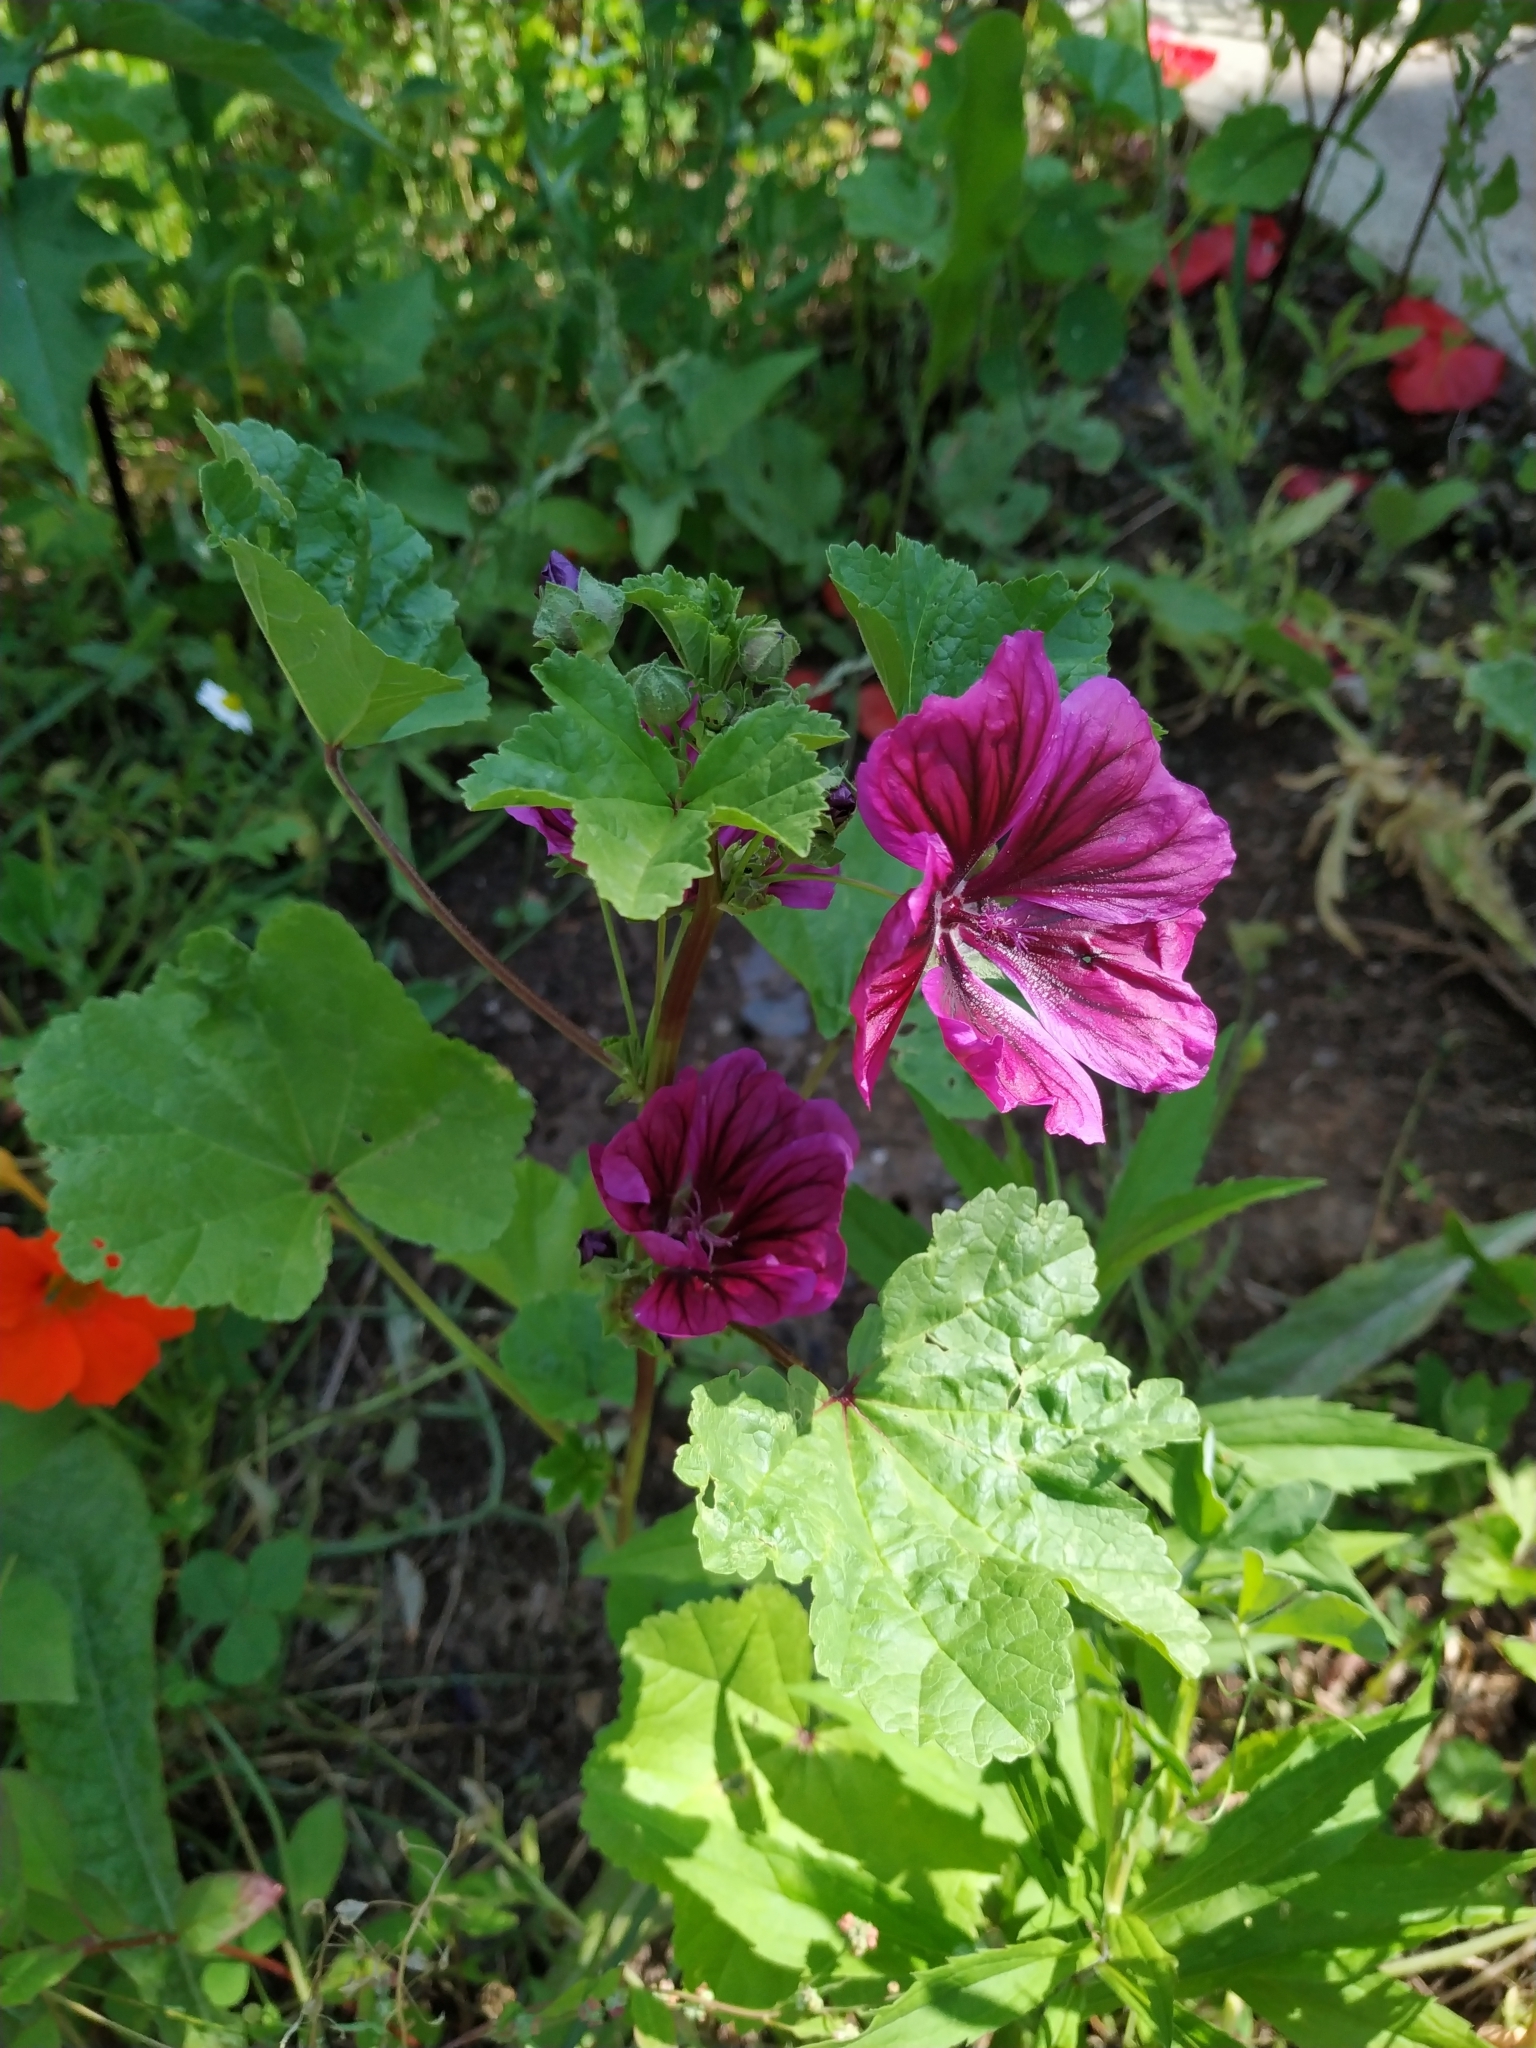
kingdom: Plantae
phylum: Tracheophyta
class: Magnoliopsida
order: Malvales
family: Malvaceae
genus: Malva
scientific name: Malva sylvestris
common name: Common mallow
